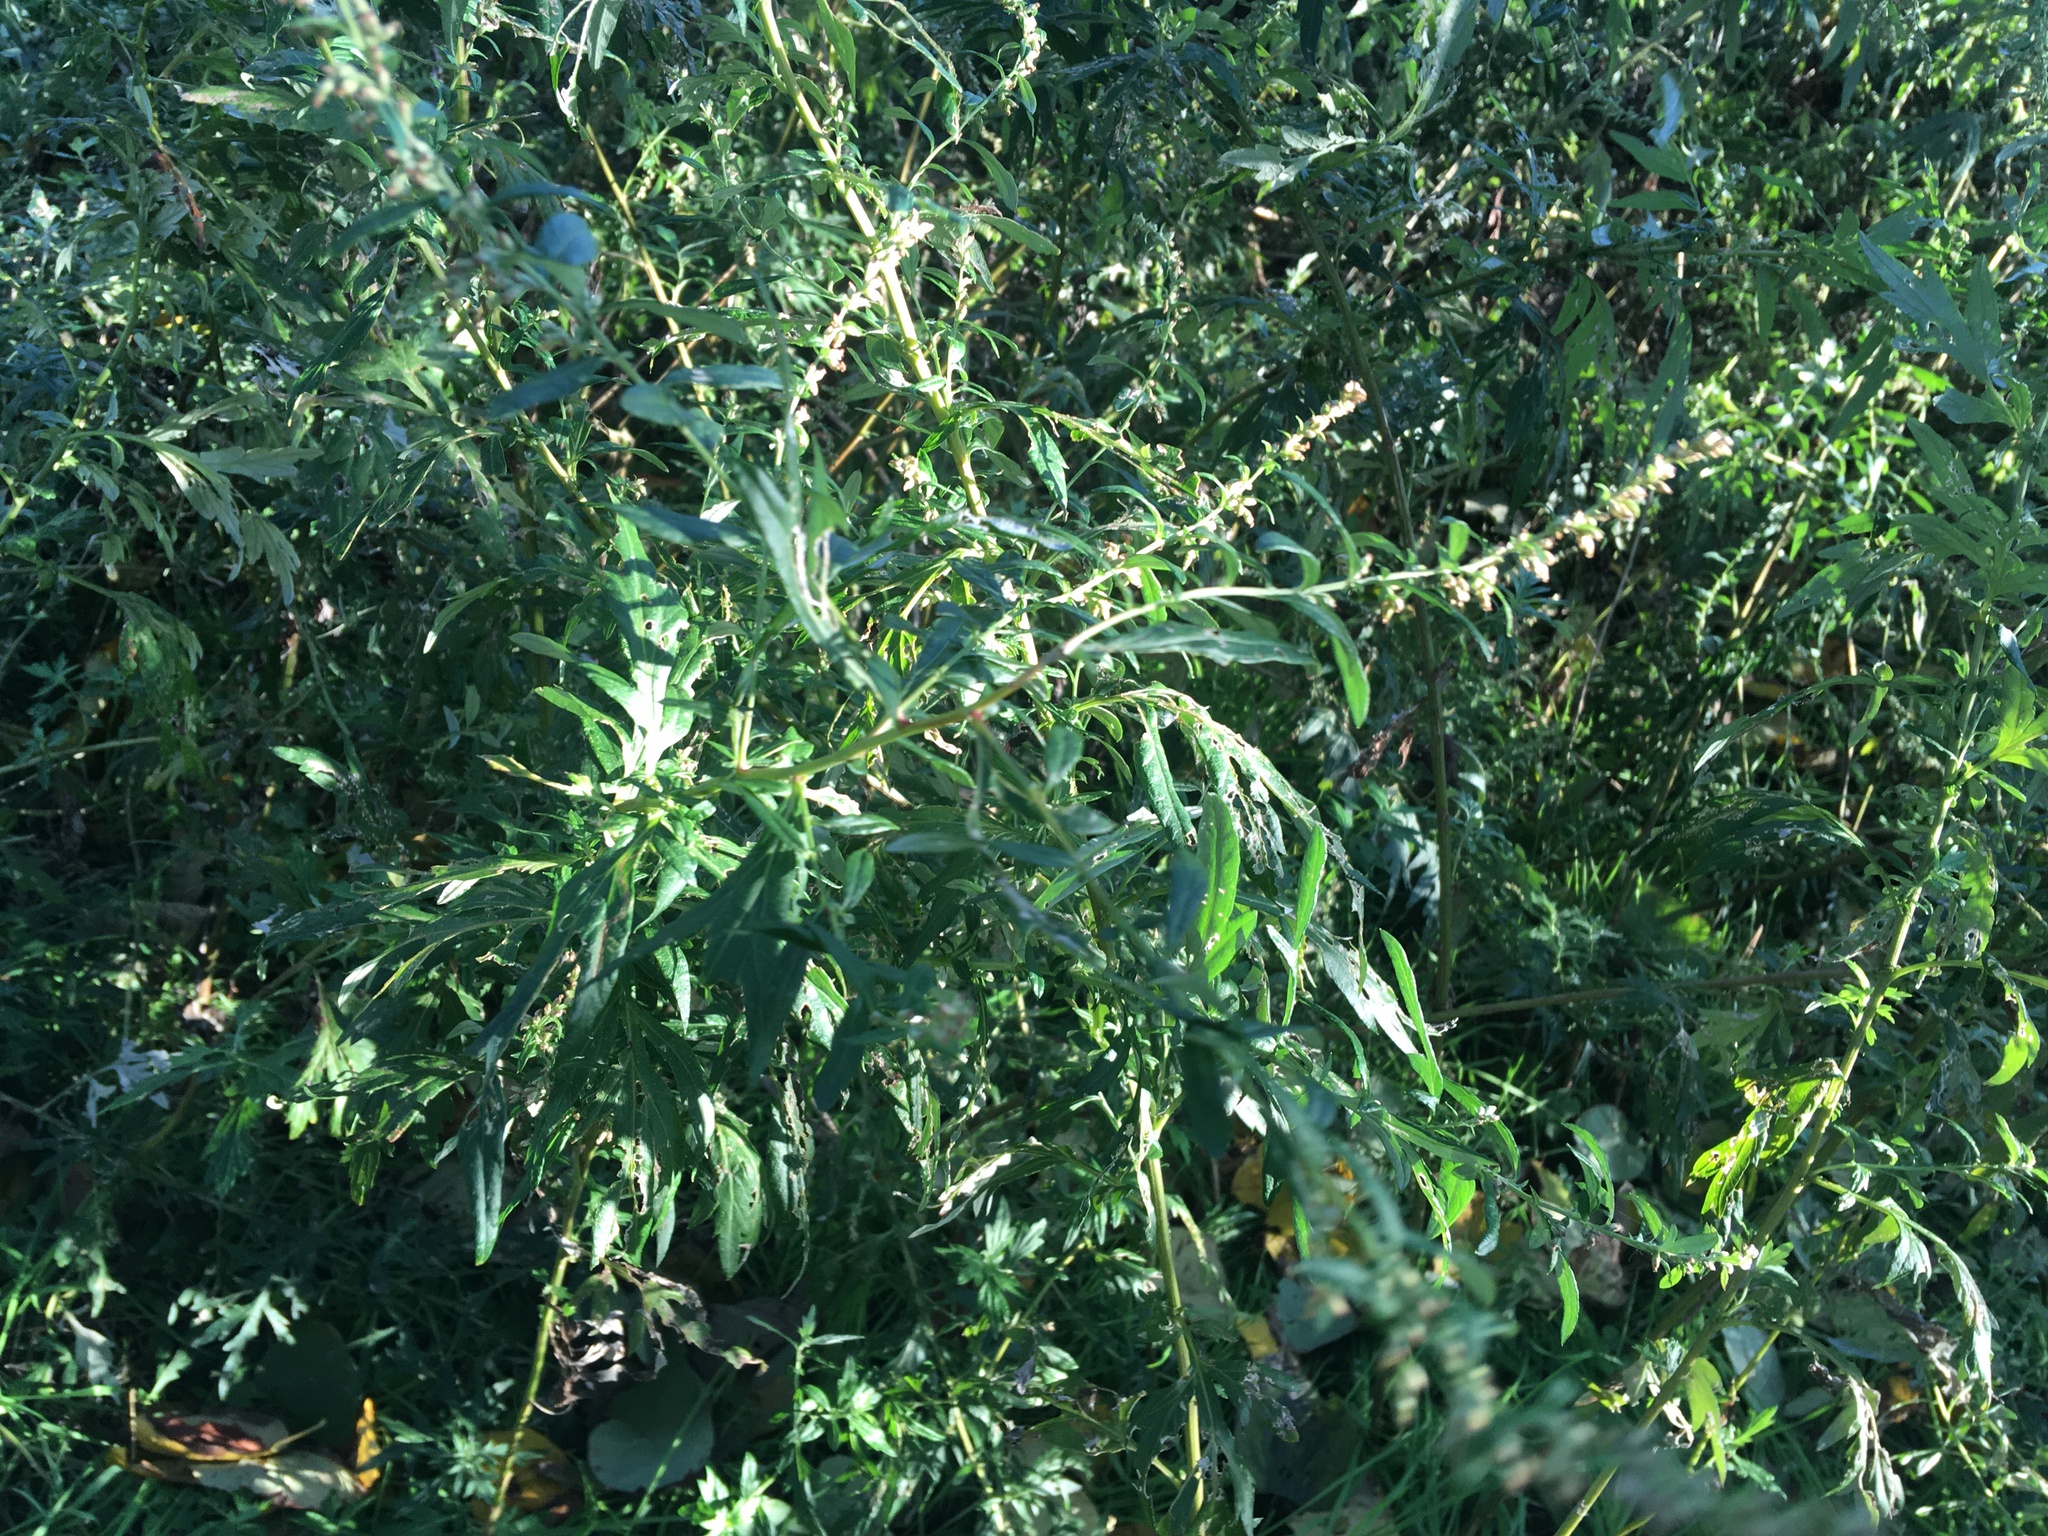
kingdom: Plantae
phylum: Tracheophyta
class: Magnoliopsida
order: Asterales
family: Asteraceae
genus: Artemisia
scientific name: Artemisia vulgaris
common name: Mugwort
